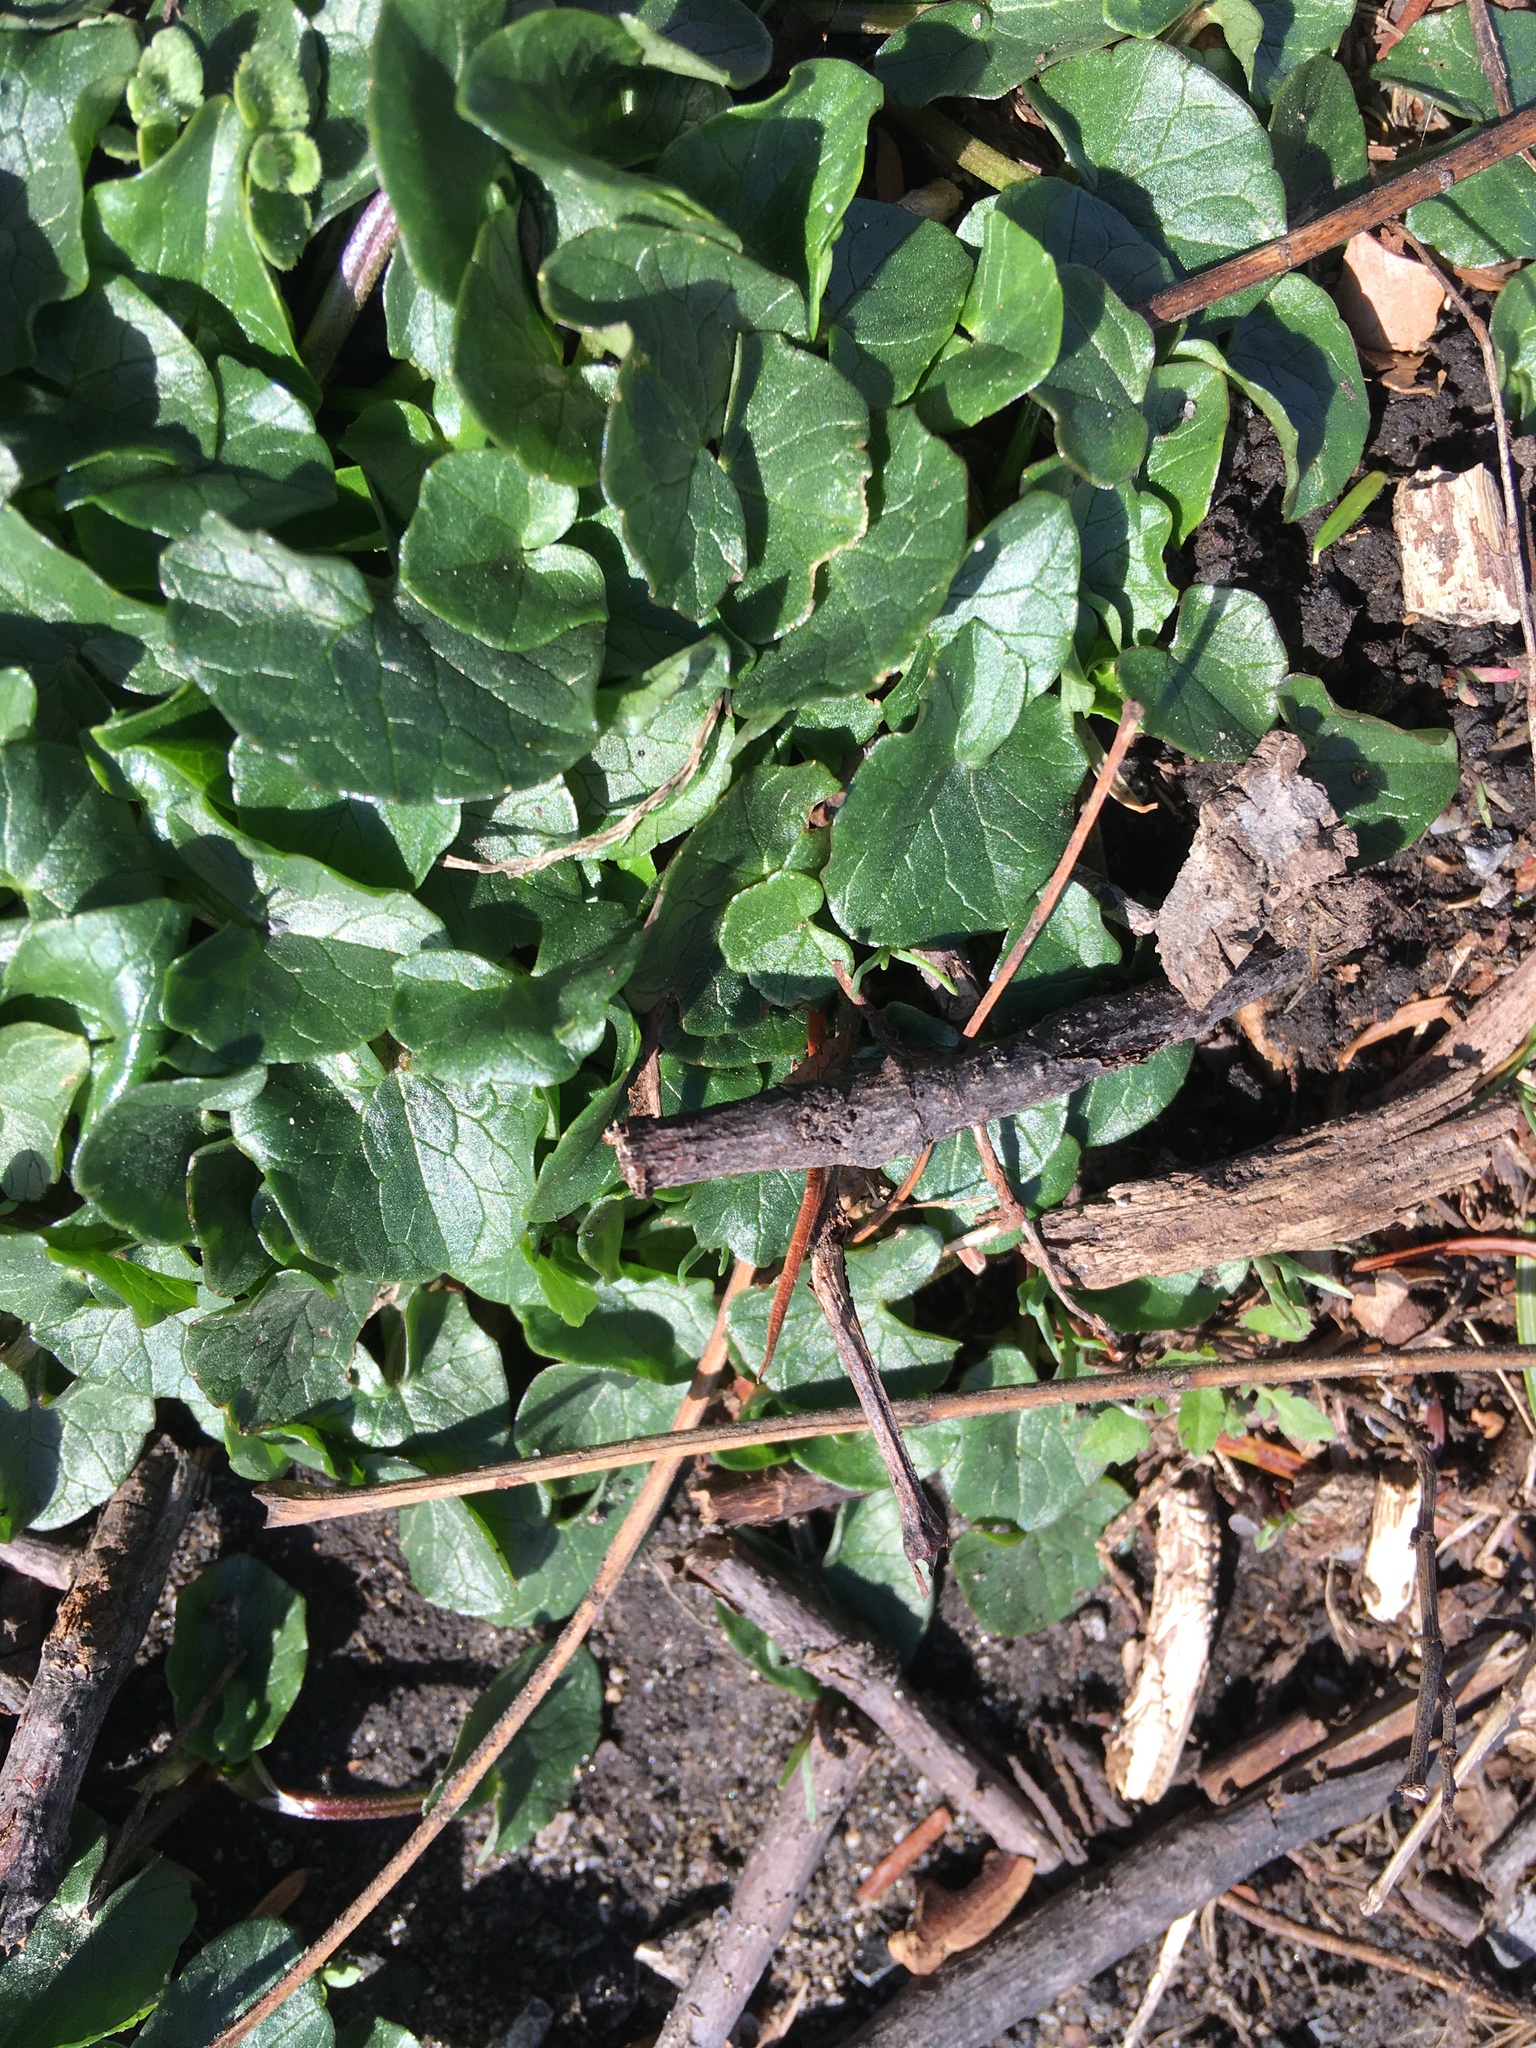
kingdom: Plantae
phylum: Tracheophyta
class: Magnoliopsida
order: Ranunculales
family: Ranunculaceae
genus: Ficaria
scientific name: Ficaria verna
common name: Lesser celandine
